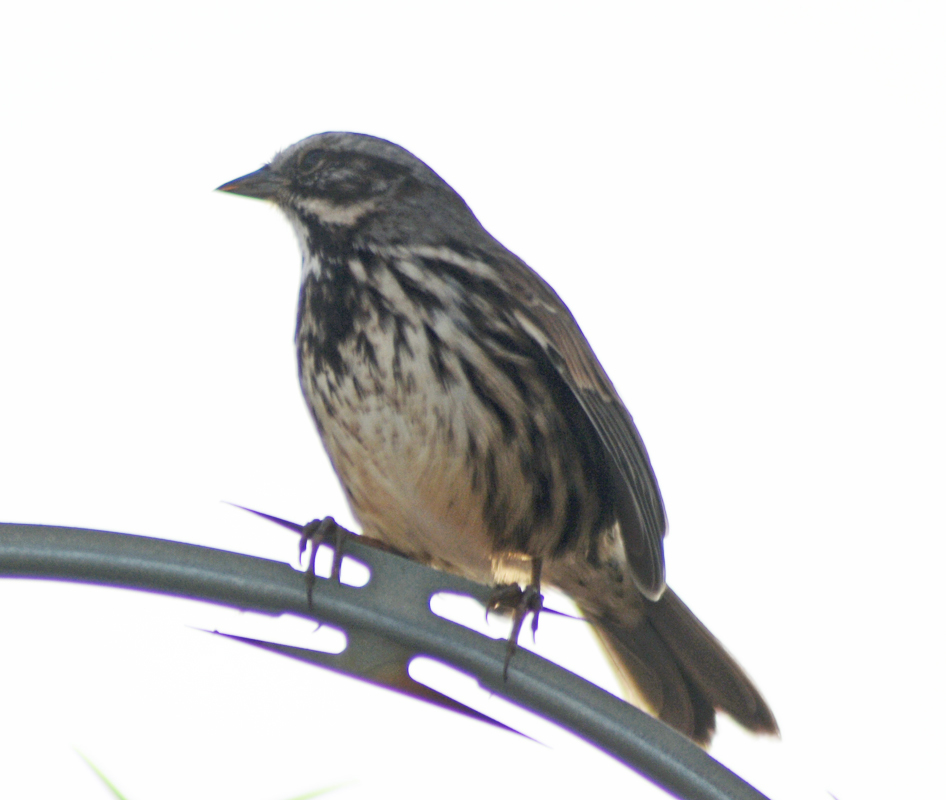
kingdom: Animalia
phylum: Chordata
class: Aves
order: Passeriformes
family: Passerellidae
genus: Melospiza
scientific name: Melospiza melodia
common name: Song sparrow
